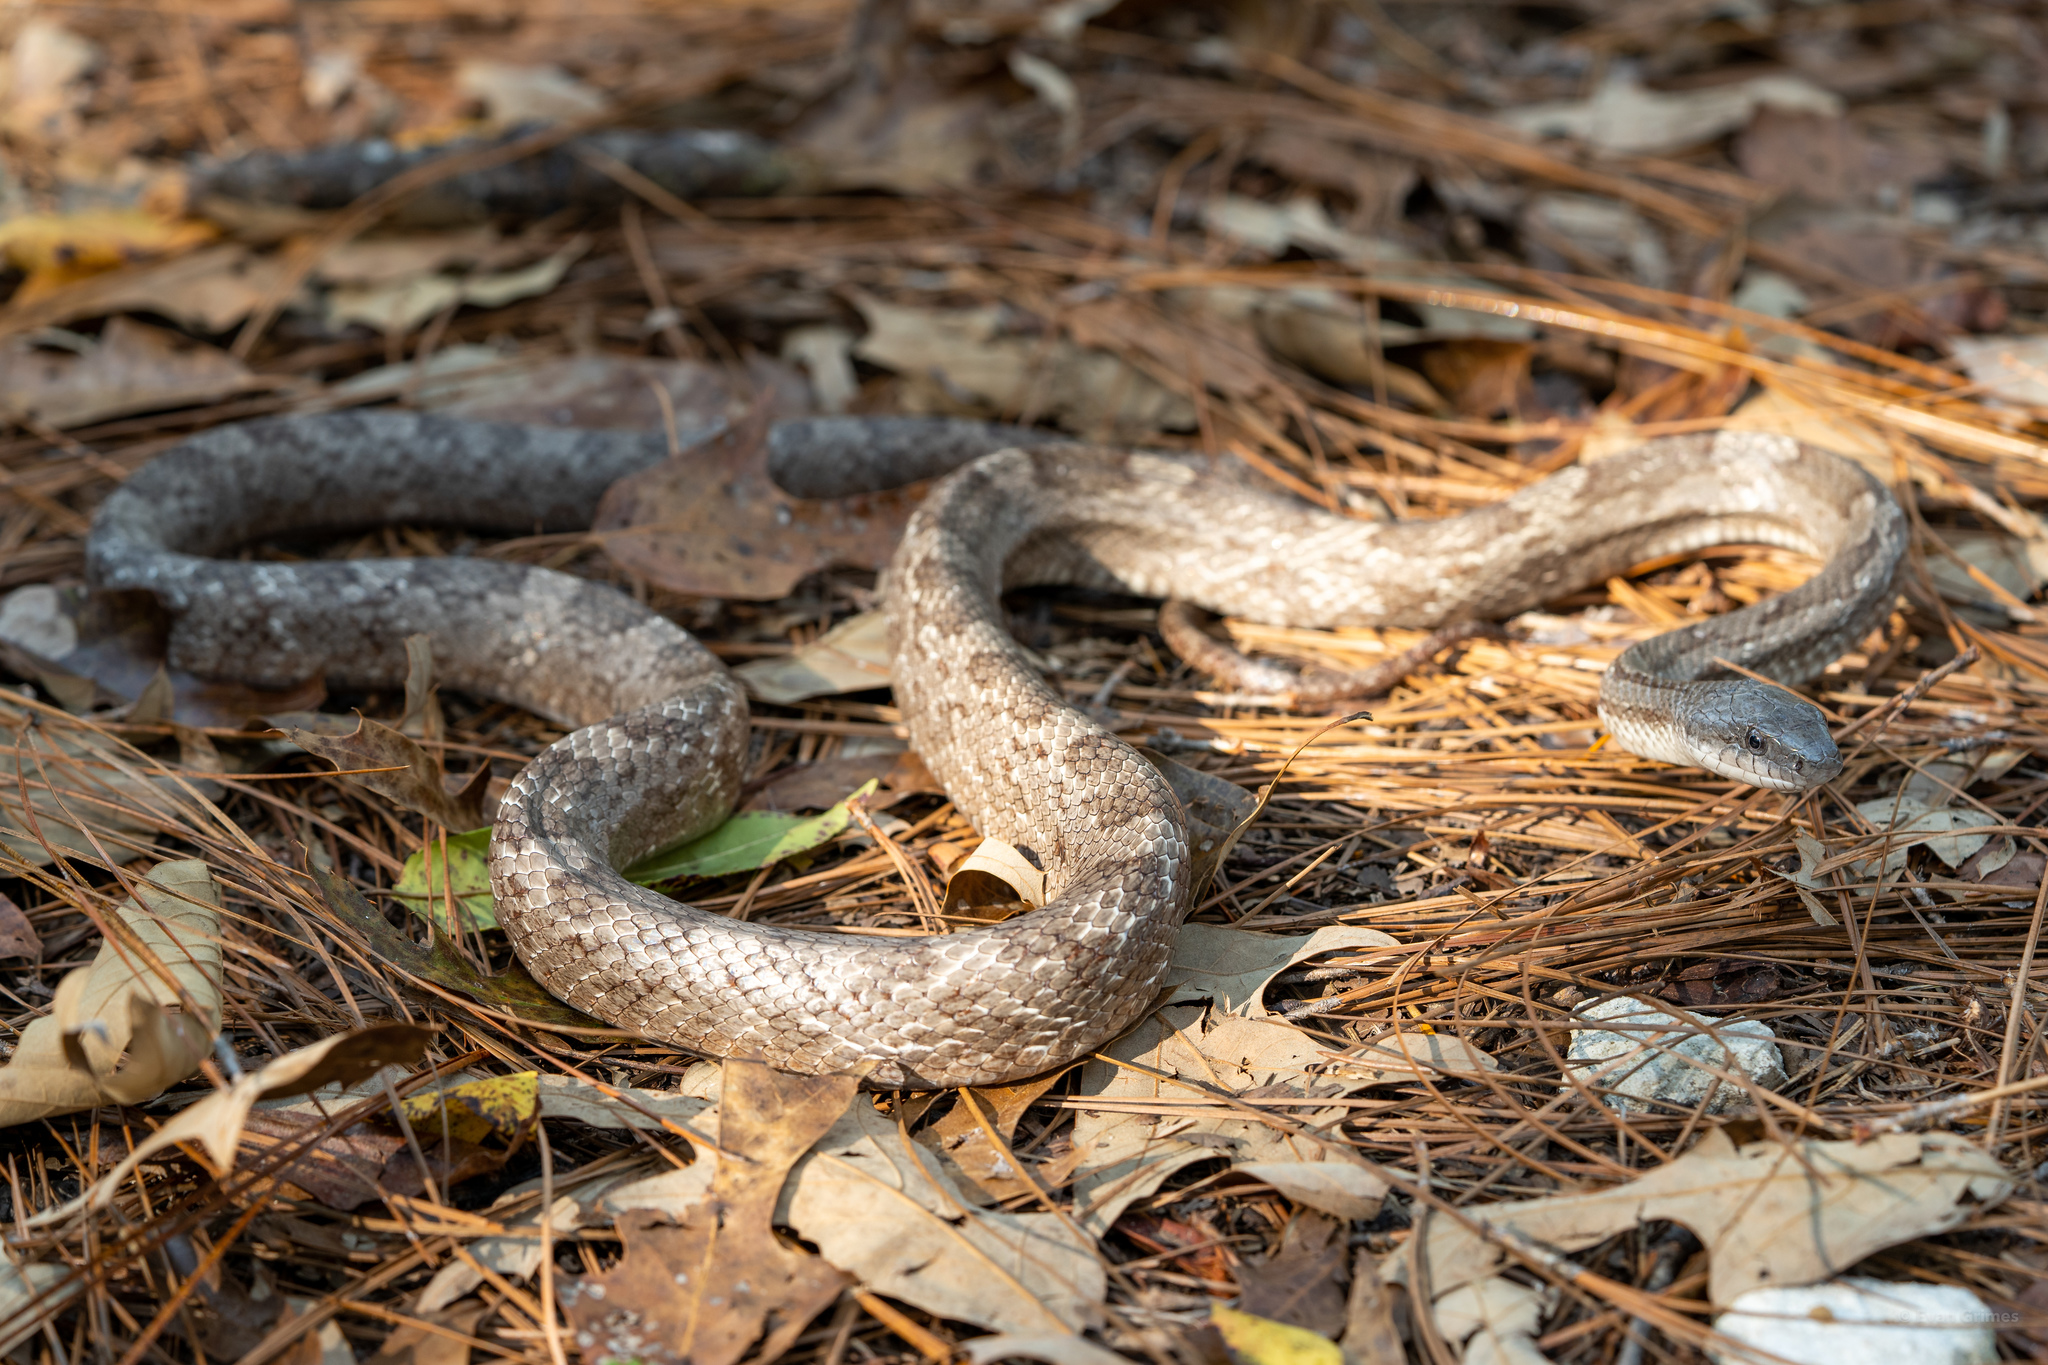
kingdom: Animalia
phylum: Chordata
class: Squamata
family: Colubridae
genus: Pantherophis
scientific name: Pantherophis spiloides
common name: Gray rat snake
